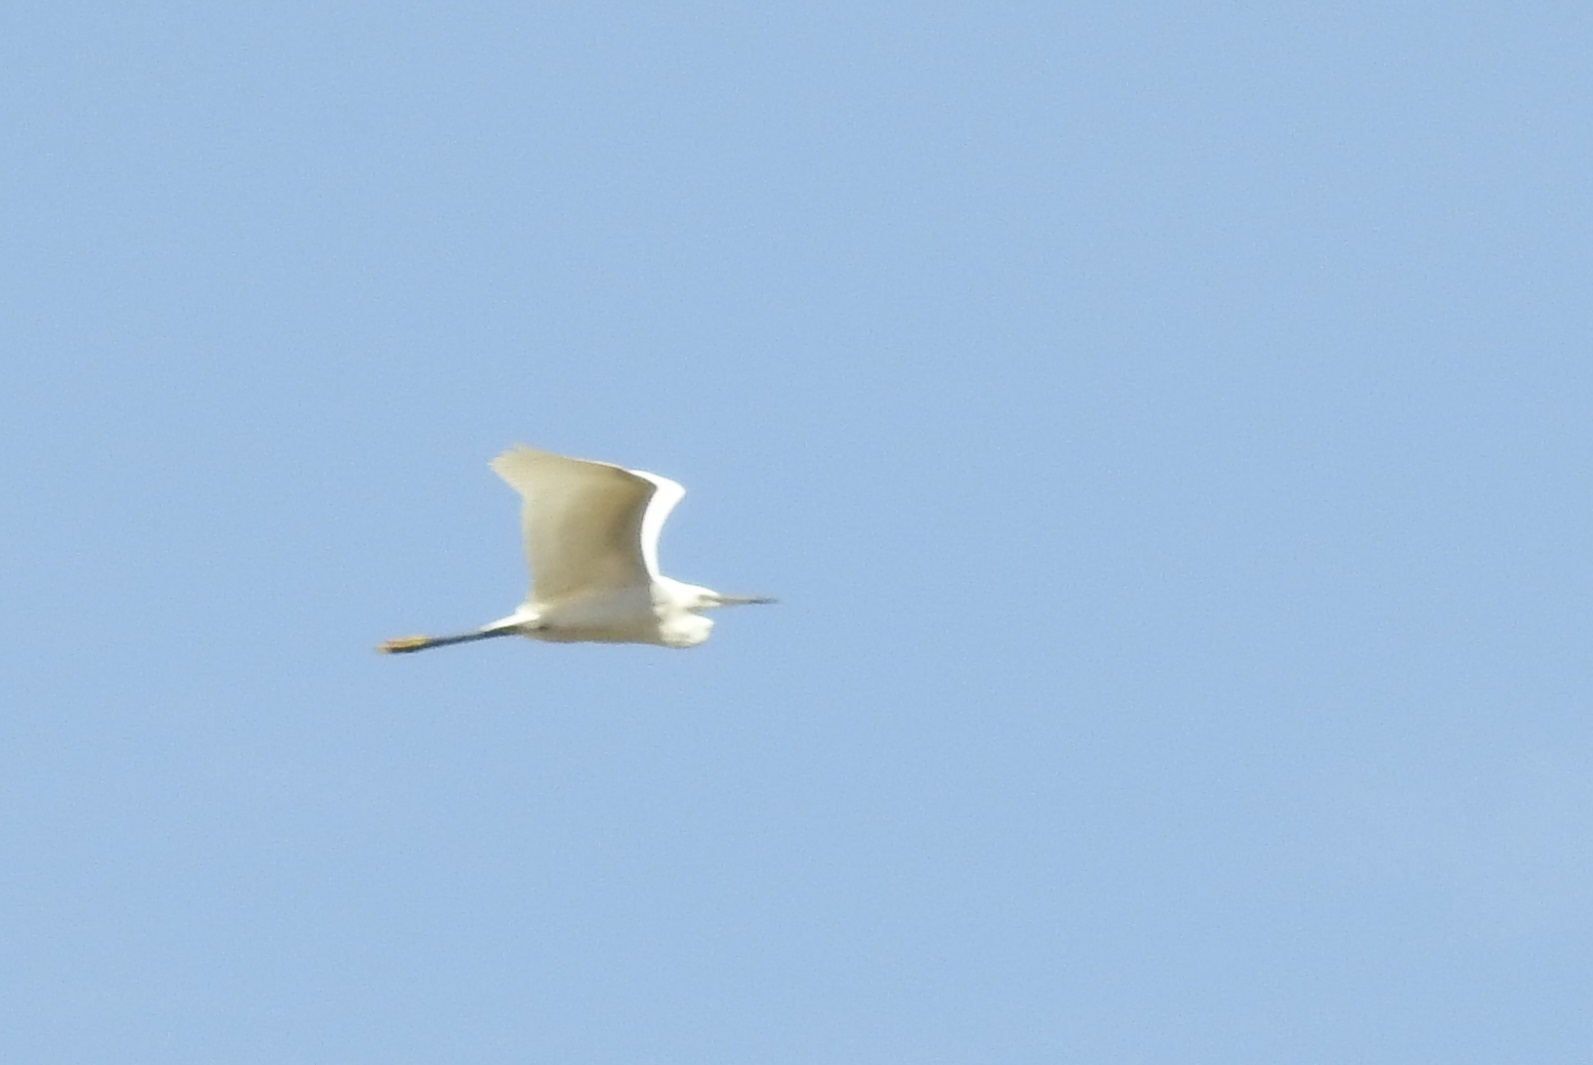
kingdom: Animalia
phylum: Chordata
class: Aves
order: Pelecaniformes
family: Ardeidae
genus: Egretta
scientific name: Egretta garzetta
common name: Little egret
